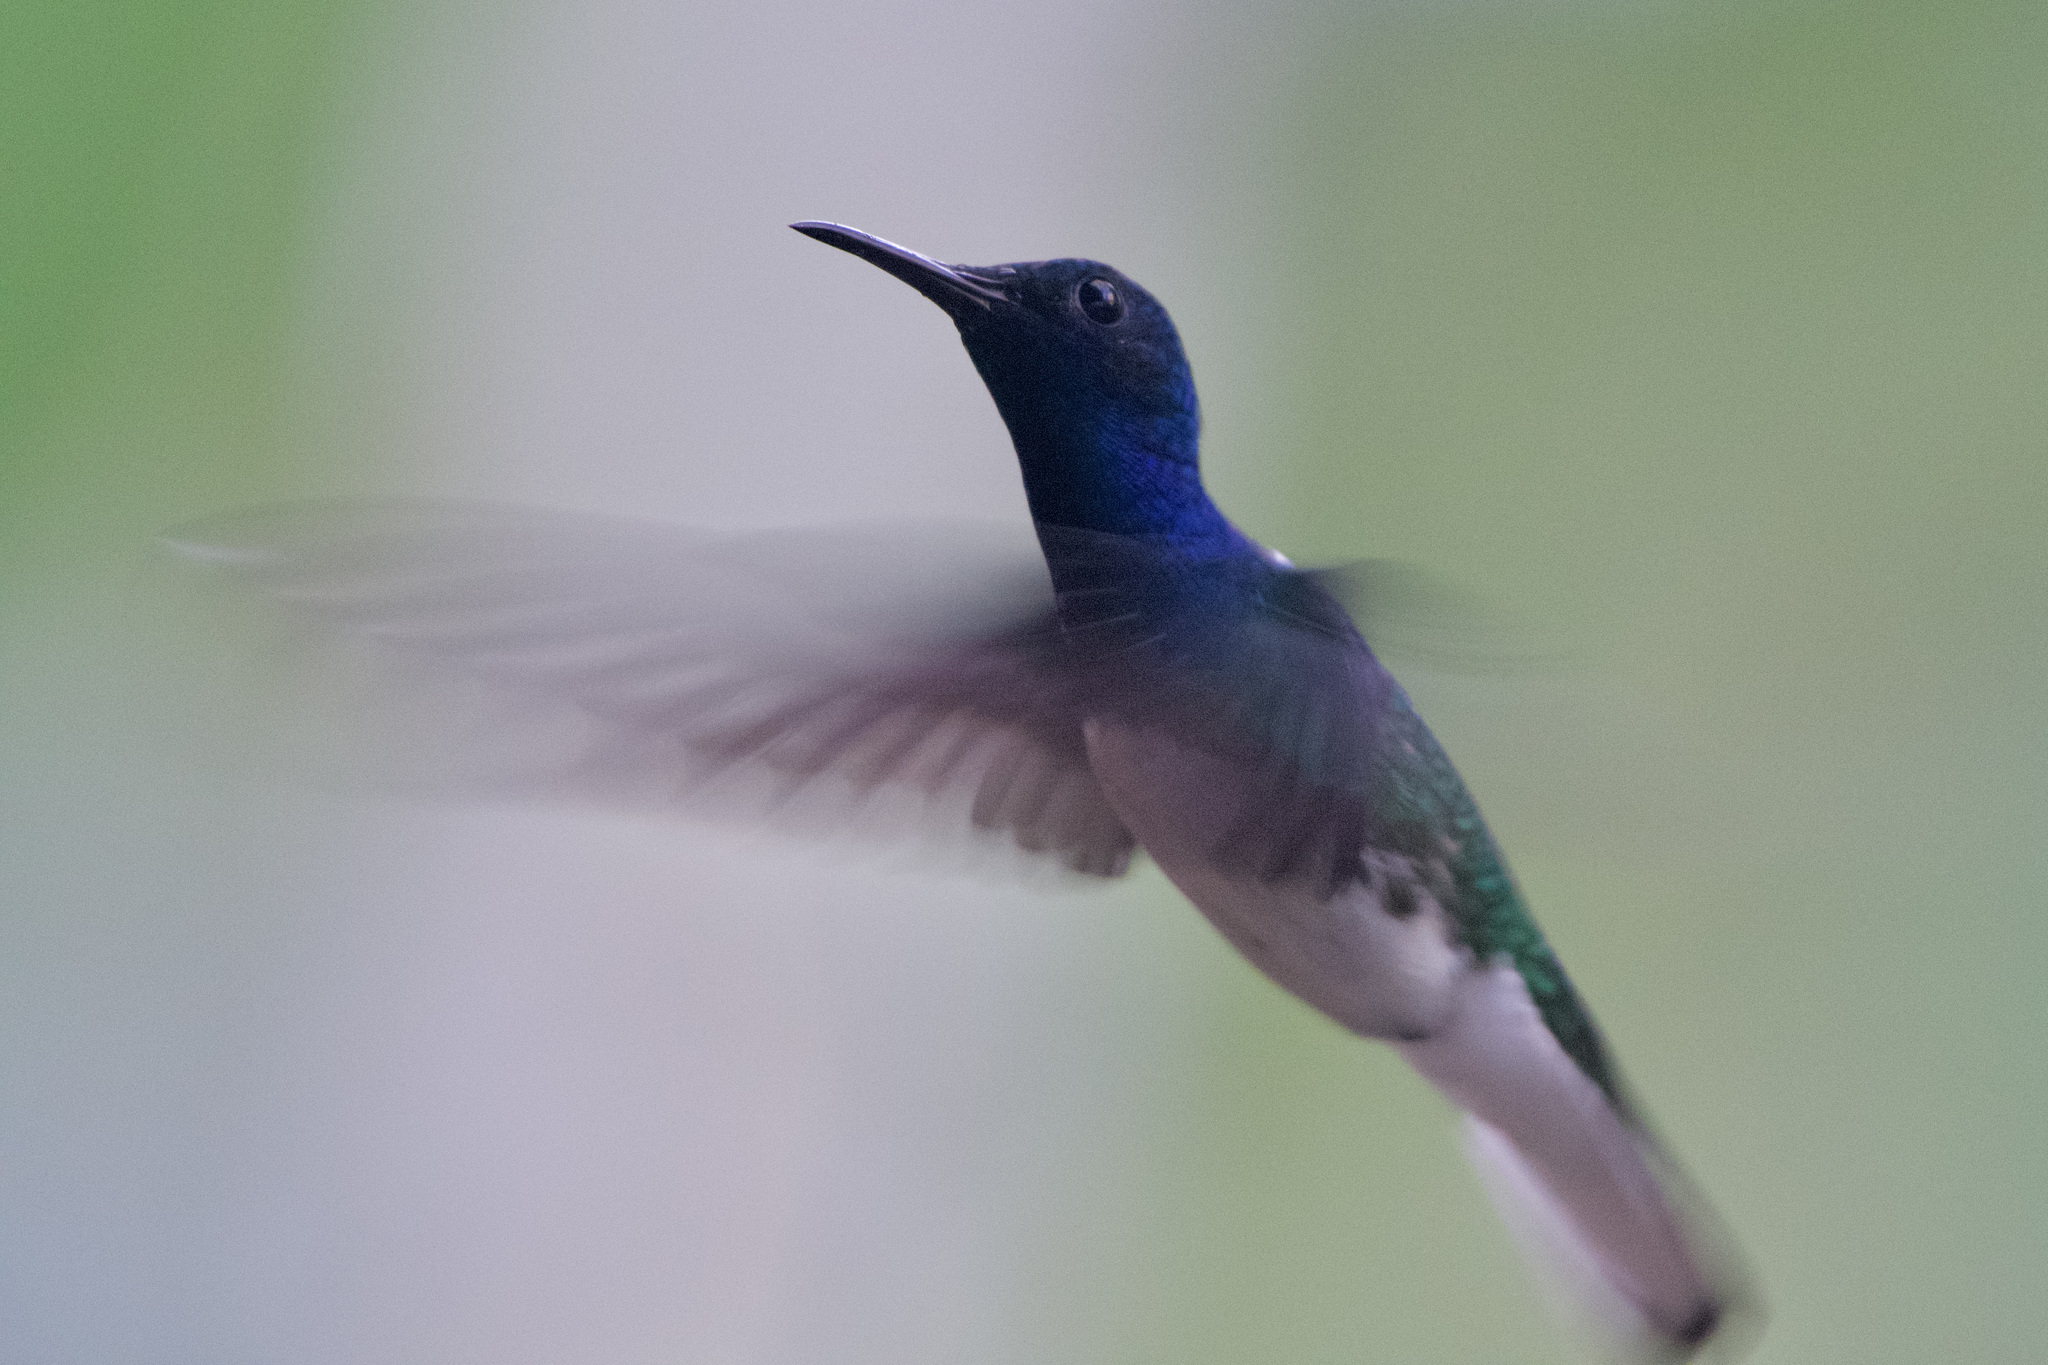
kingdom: Animalia
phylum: Chordata
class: Aves
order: Apodiformes
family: Trochilidae
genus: Florisuga
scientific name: Florisuga mellivora
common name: White-necked jacobin
